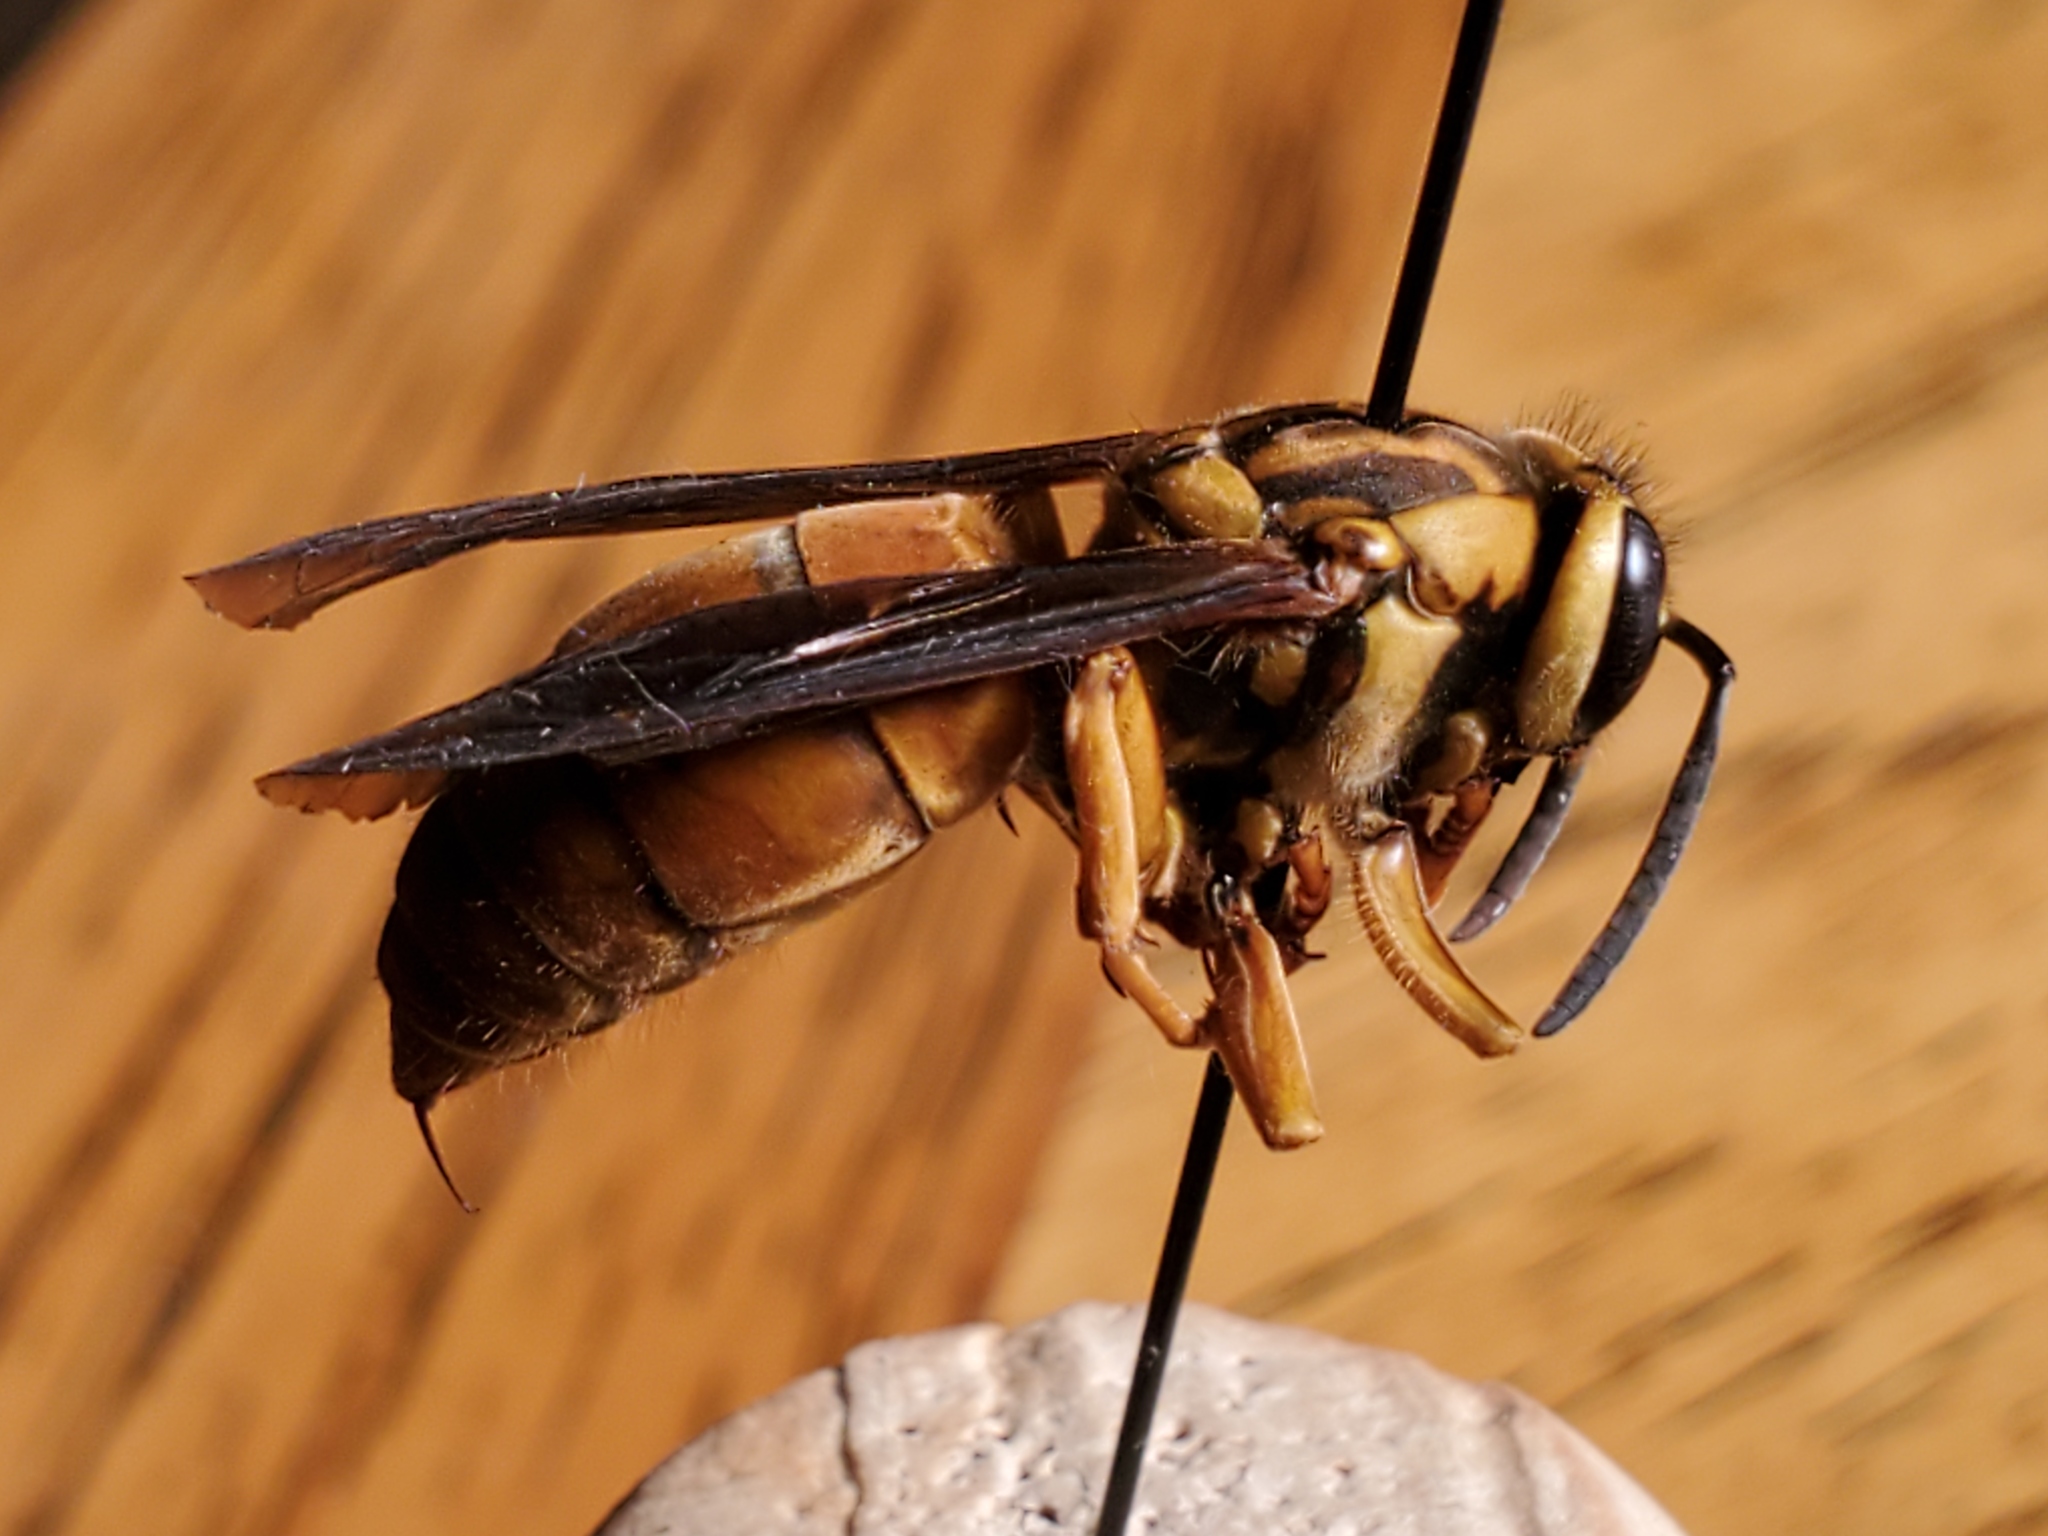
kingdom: Animalia
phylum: Arthropoda
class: Insecta
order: Hymenoptera
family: Vespidae
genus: Vespula
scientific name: Vespula squamosa
